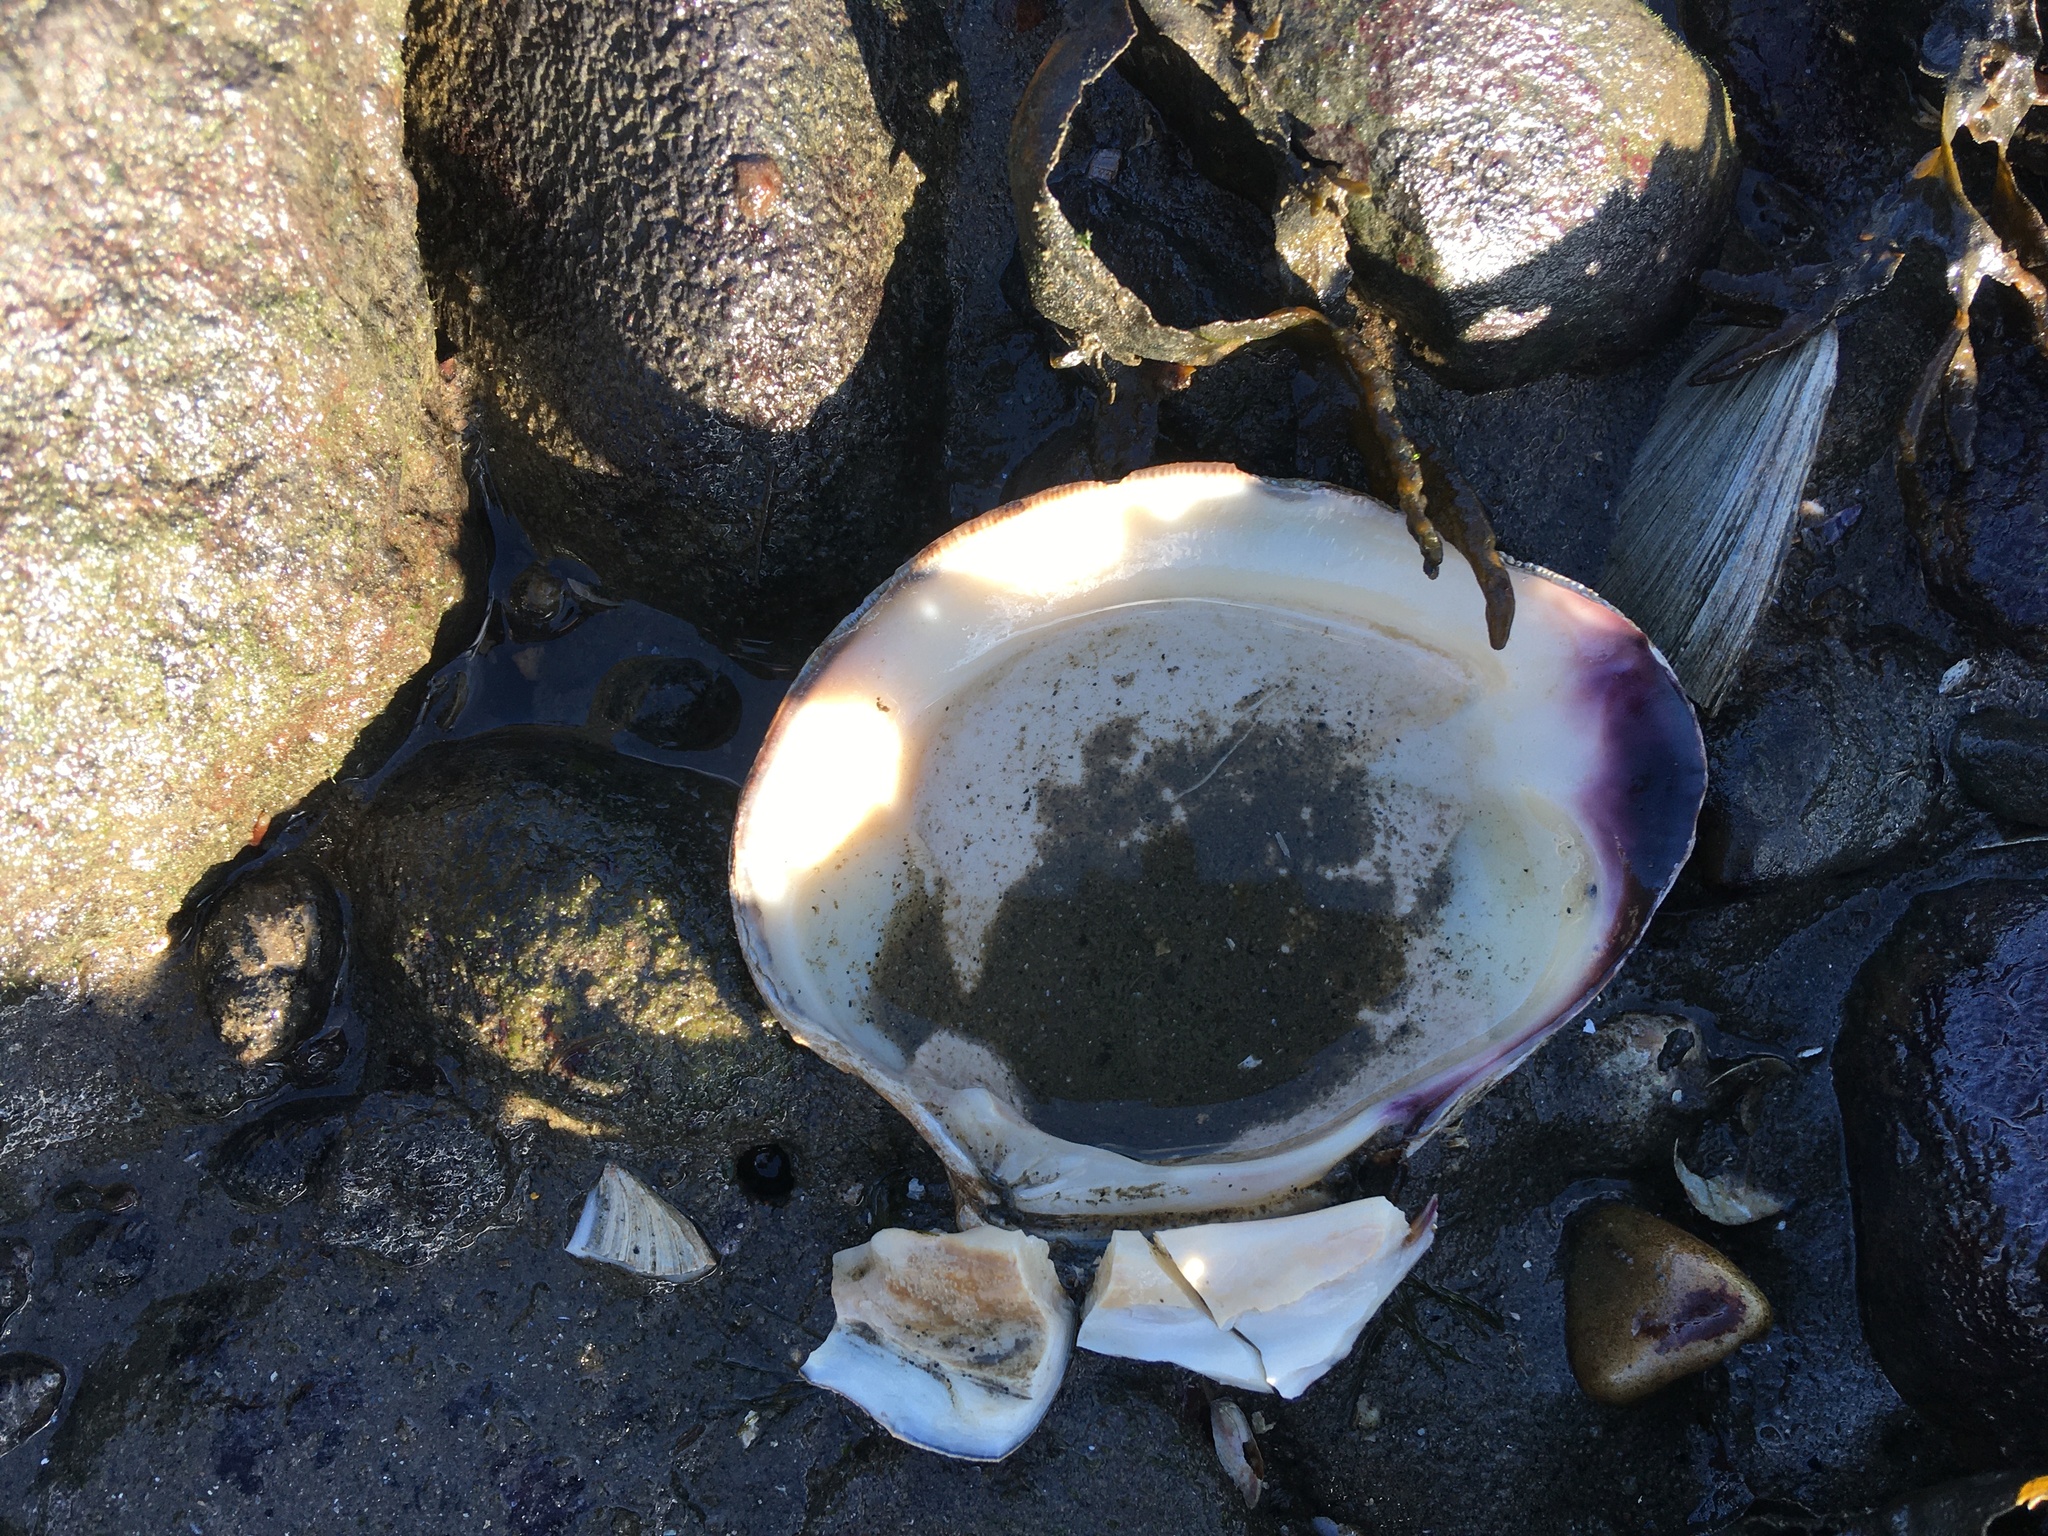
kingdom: Animalia
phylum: Mollusca
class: Bivalvia
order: Venerida
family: Veneridae
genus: Mercenaria
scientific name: Mercenaria mercenaria
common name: American hard-shelled clam
